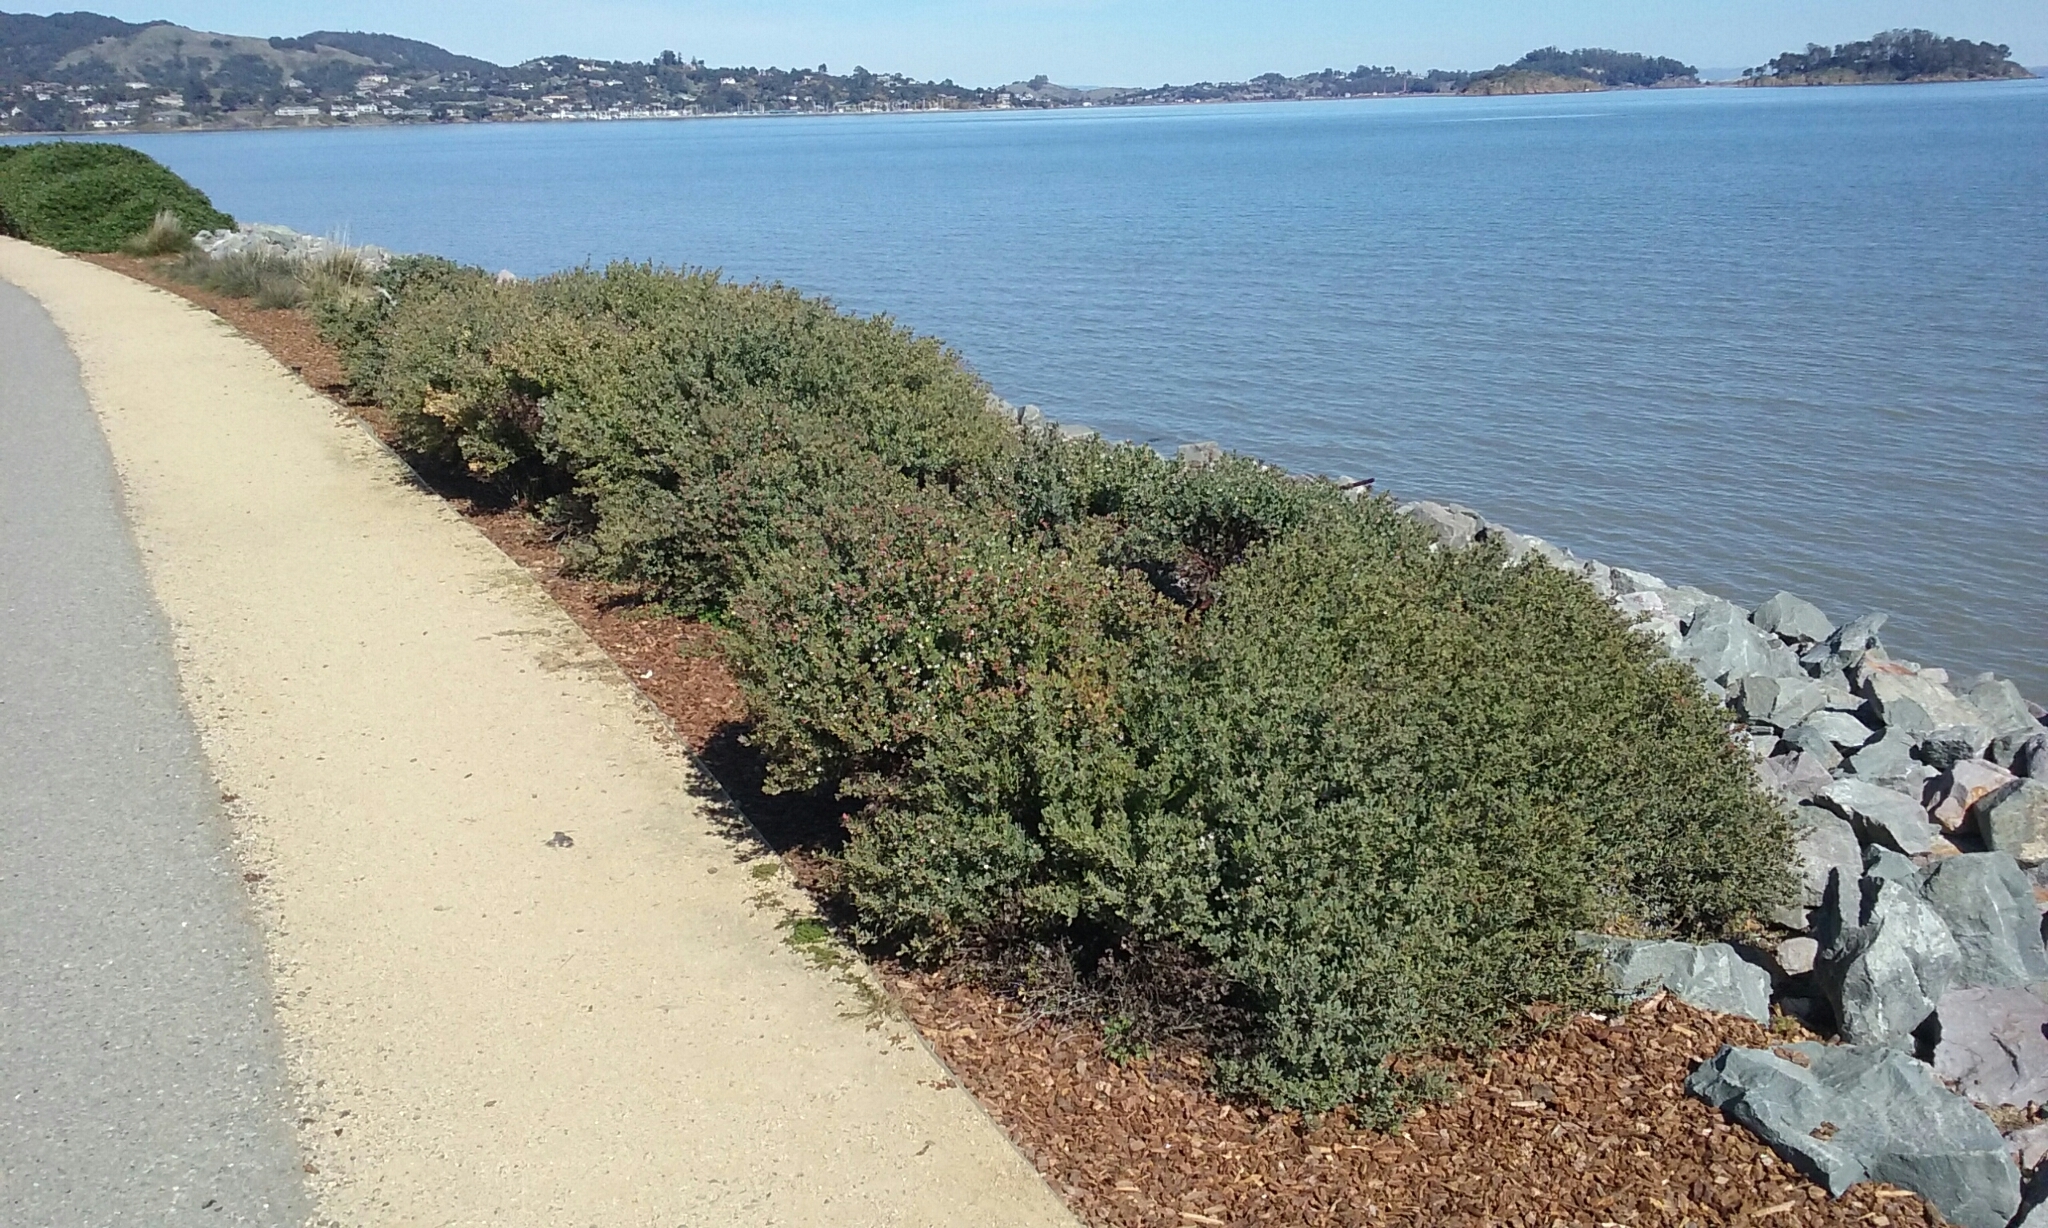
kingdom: Animalia
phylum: Arthropoda
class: Insecta
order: Hemiptera
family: Aphididae
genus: Tamalia
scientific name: Tamalia coweni
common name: Manzanita leafgall aphid
